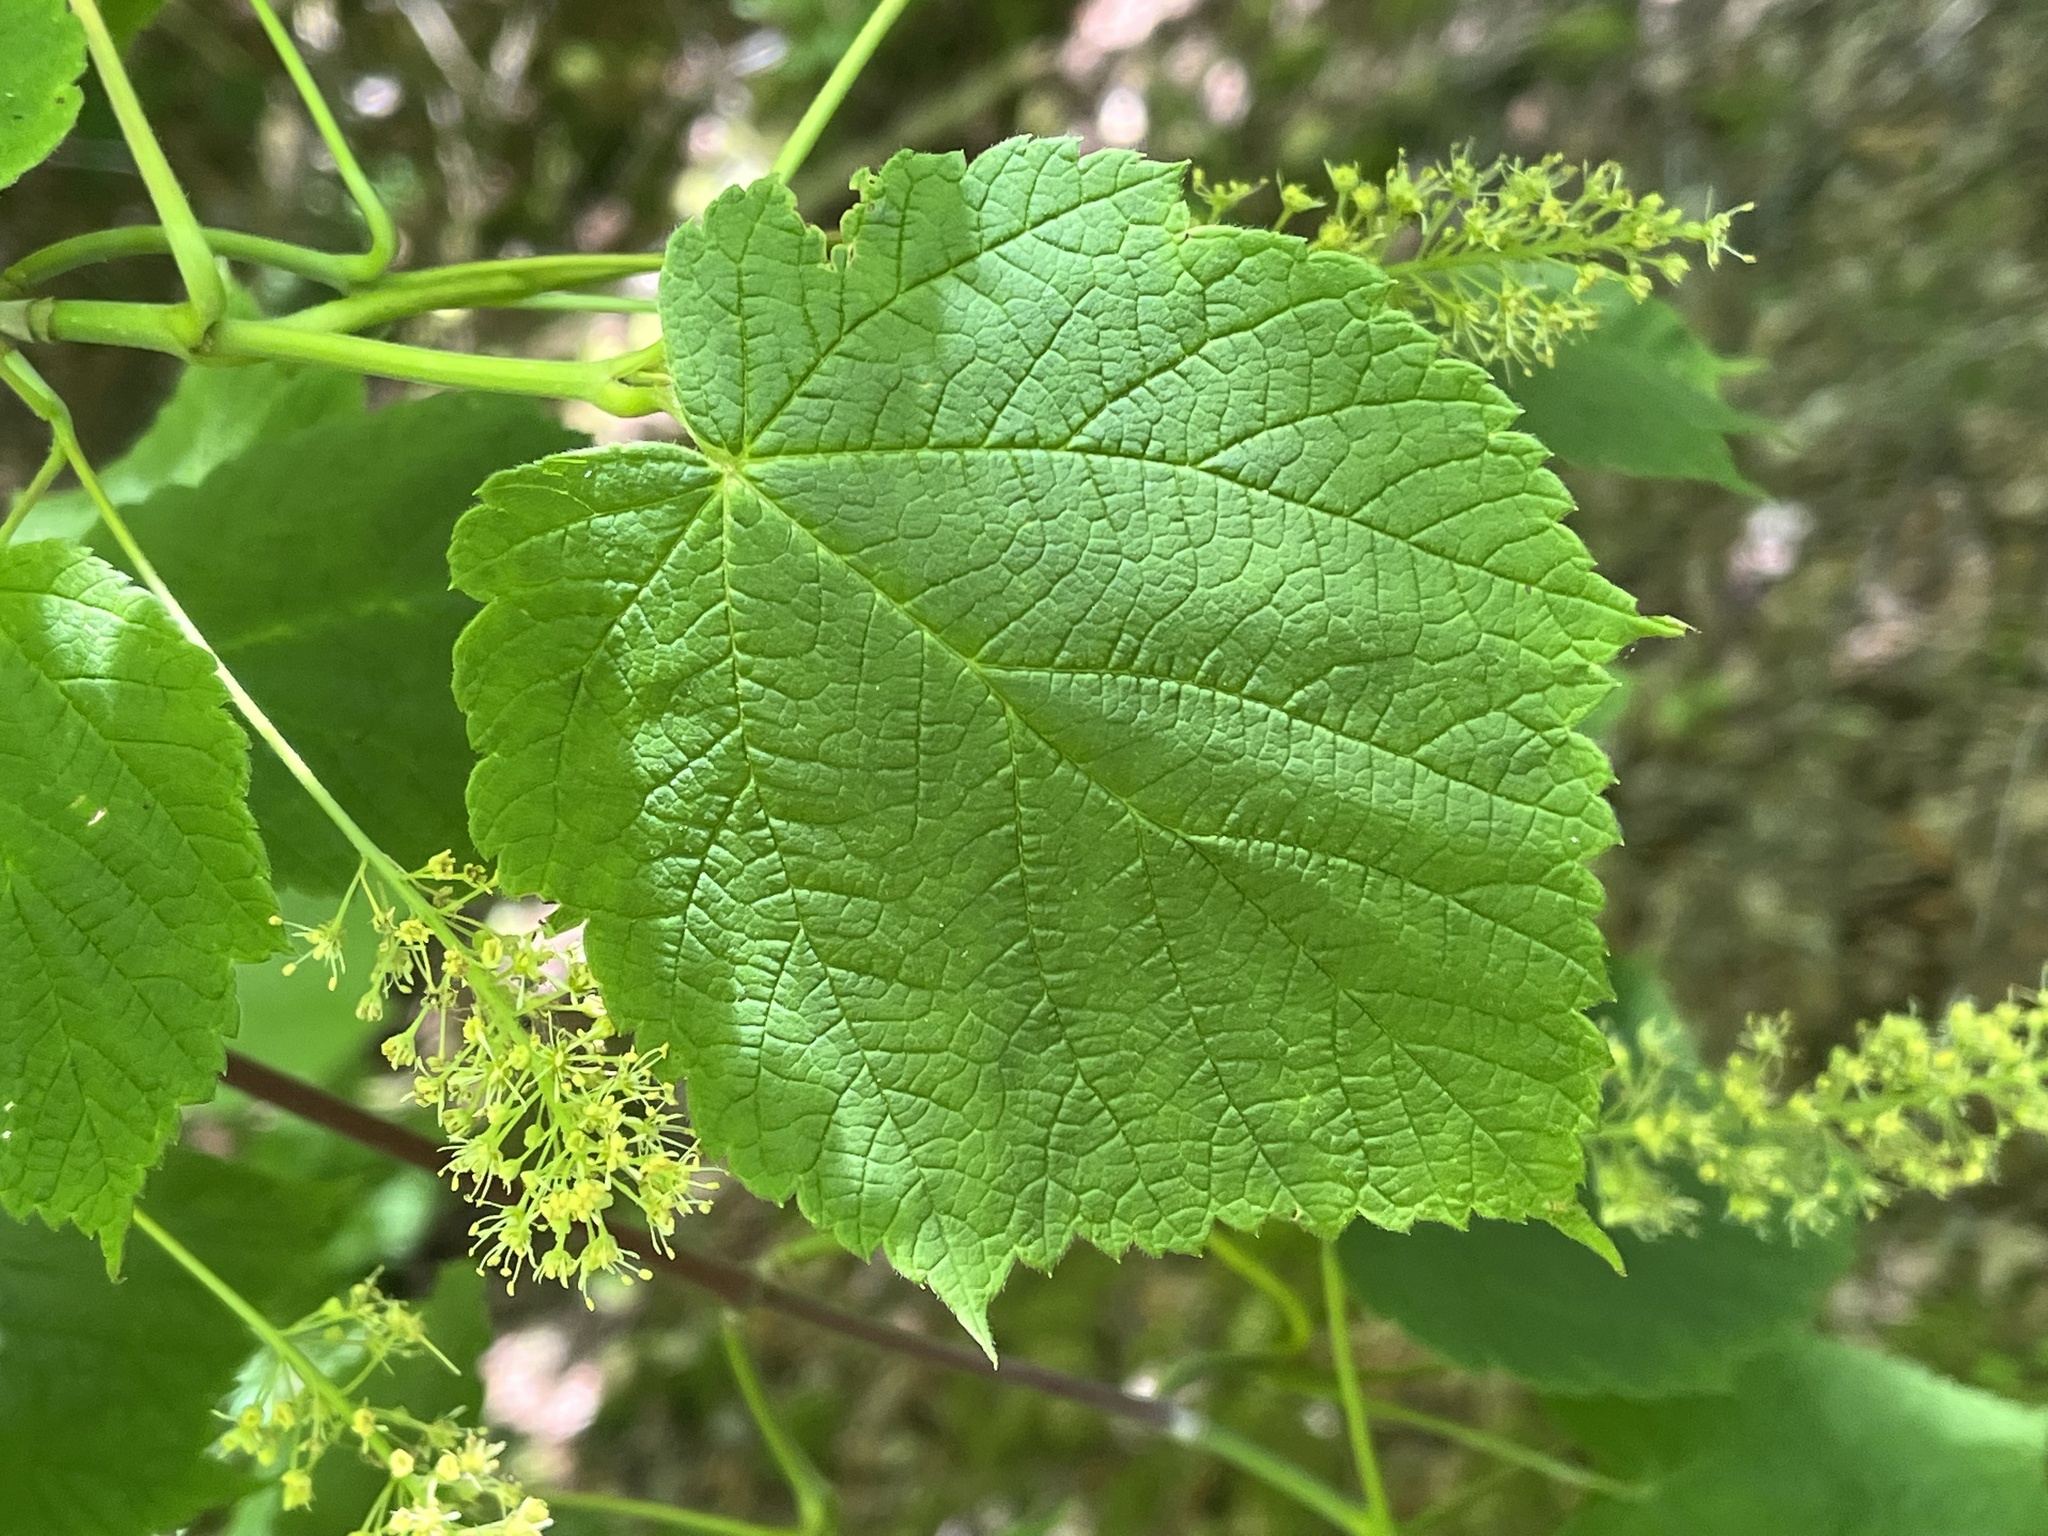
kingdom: Plantae
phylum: Tracheophyta
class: Magnoliopsida
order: Sapindales
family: Sapindaceae
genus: Acer
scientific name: Acer spicatum
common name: Mountain maple
